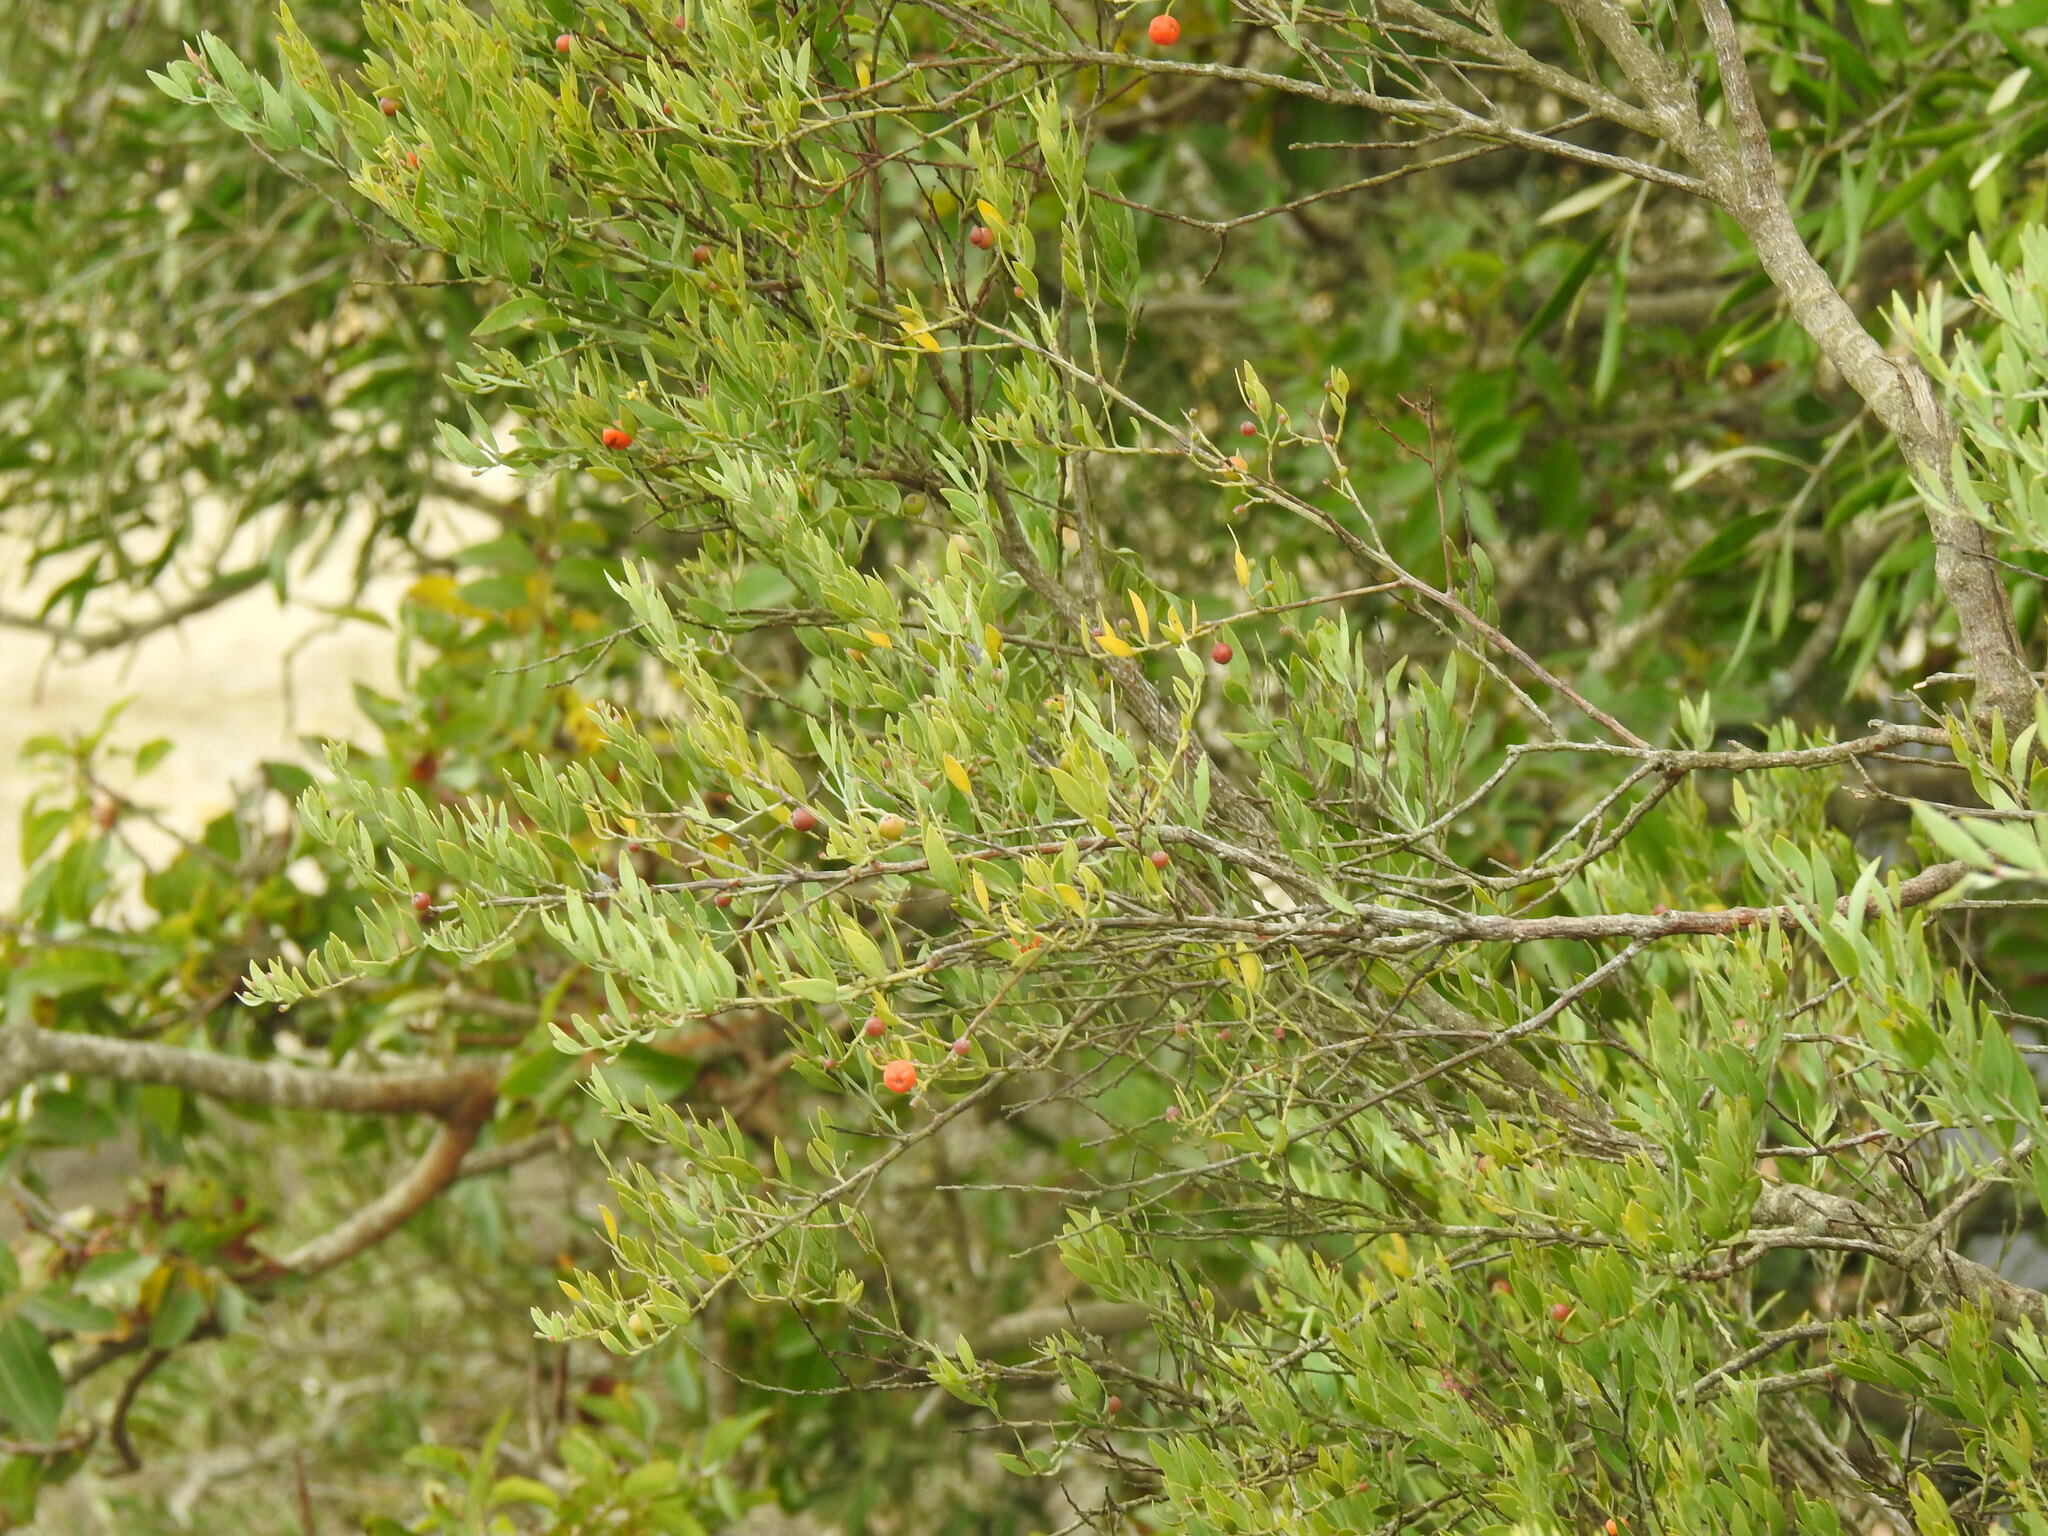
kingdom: Plantae
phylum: Tracheophyta
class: Magnoliopsida
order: Santalales
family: Santalaceae
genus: Osyris
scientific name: Osyris lanceolata
